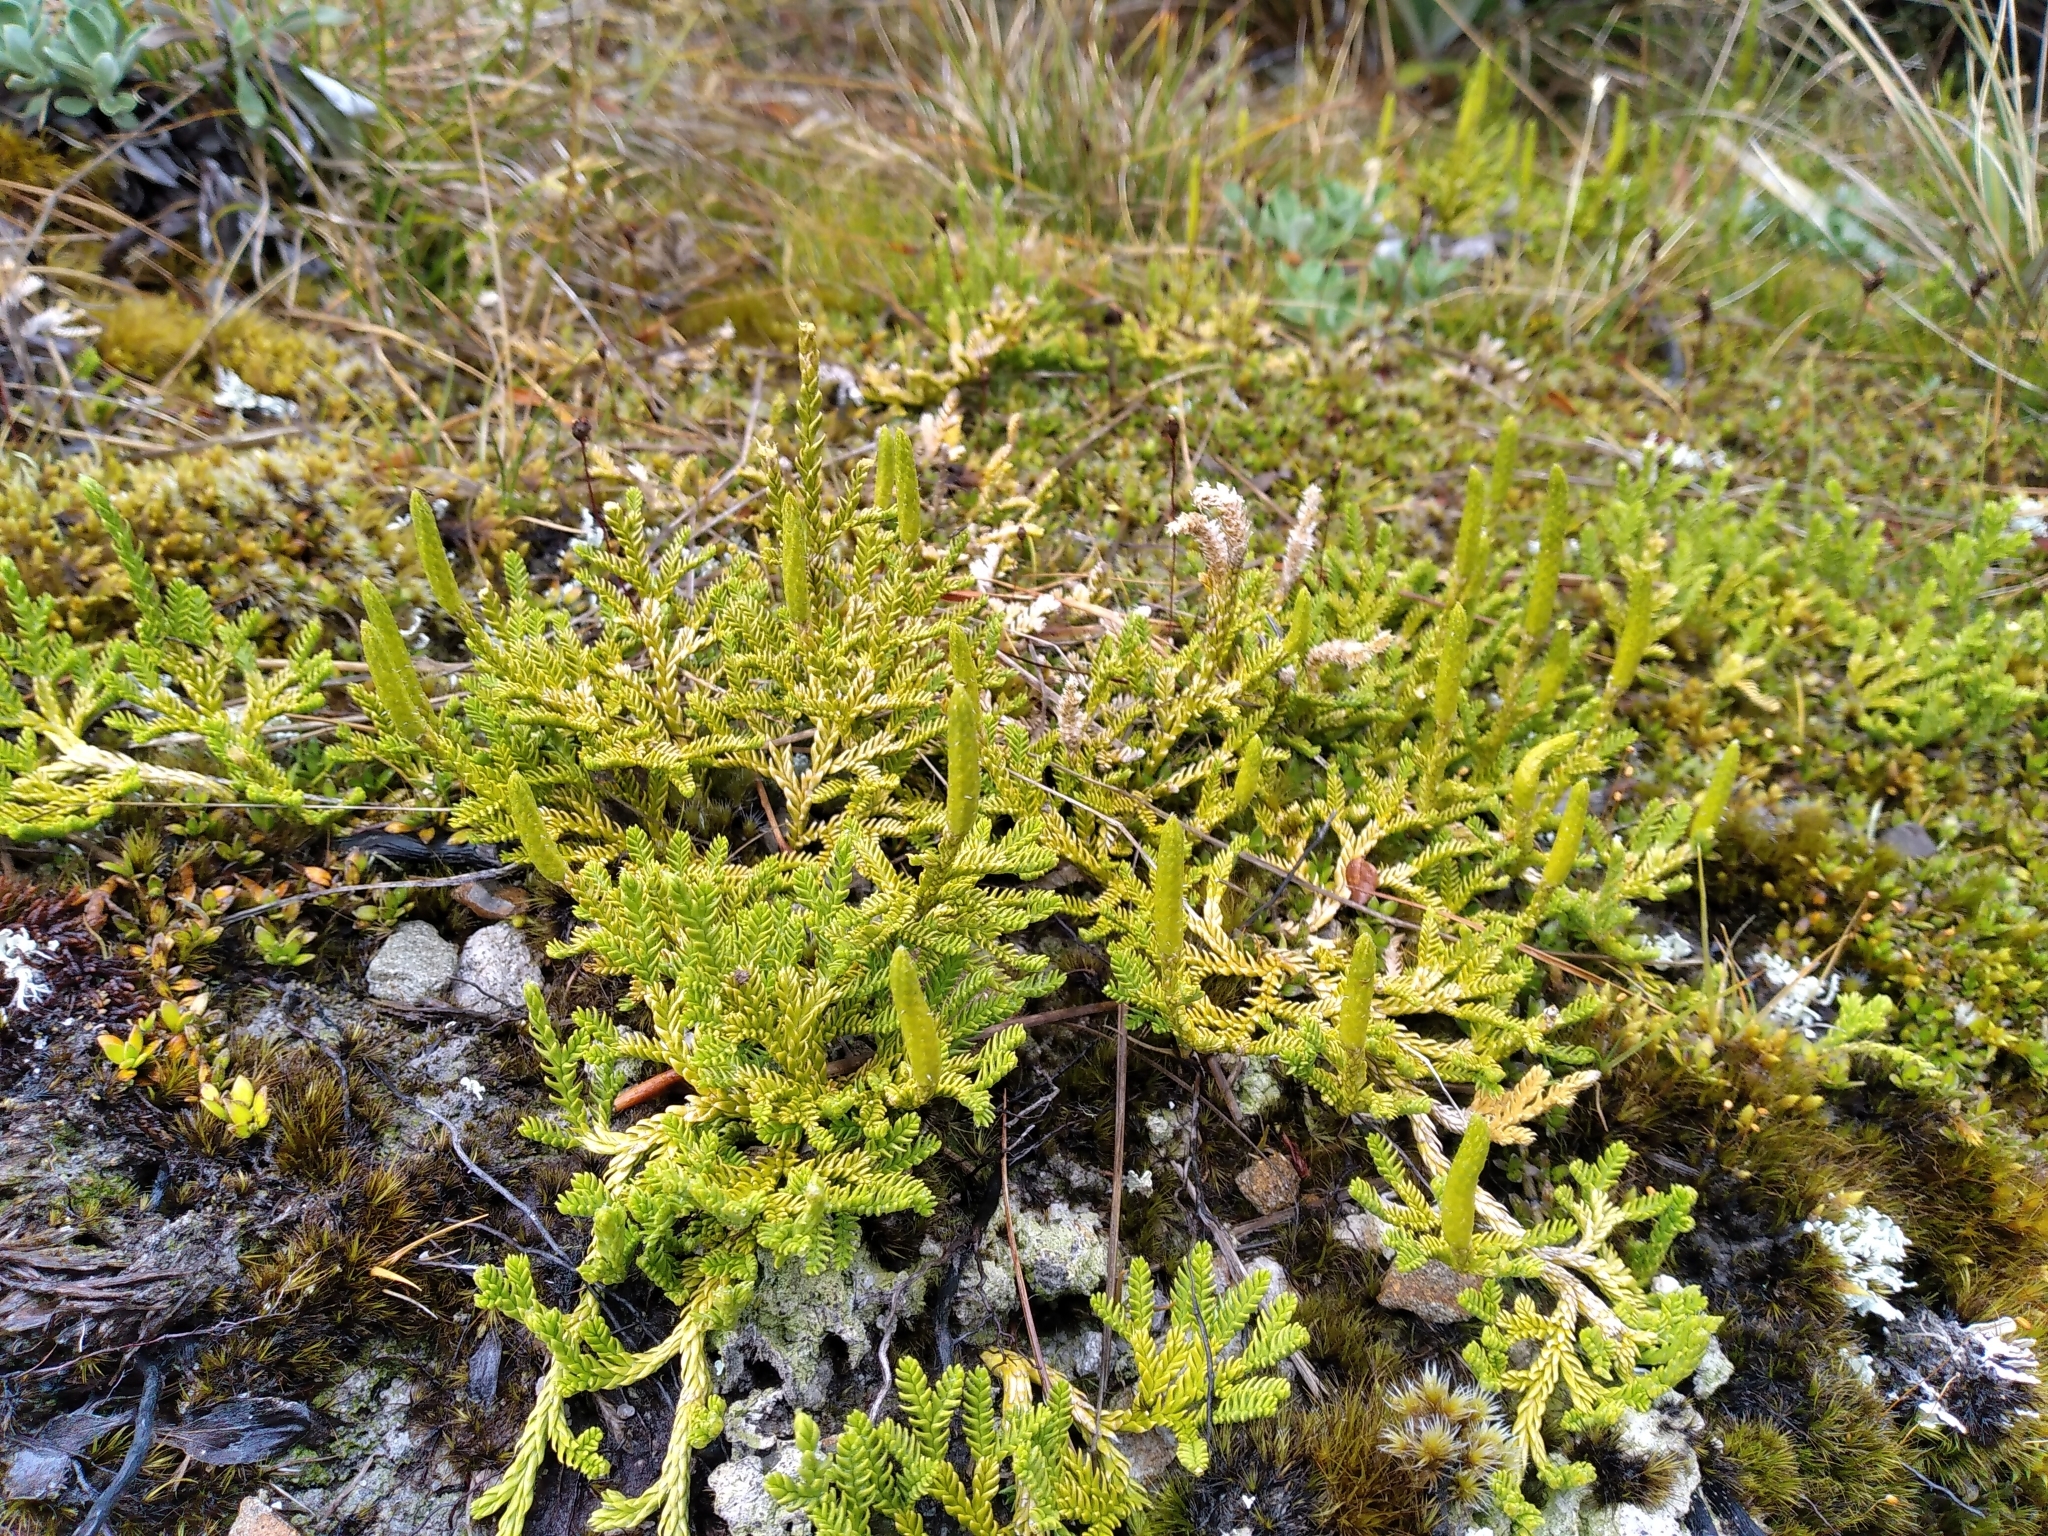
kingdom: Plantae
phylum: Tracheophyta
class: Lycopodiopsida
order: Lycopodiales
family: Lycopodiaceae
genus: Diphasium
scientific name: Diphasium scariosum
